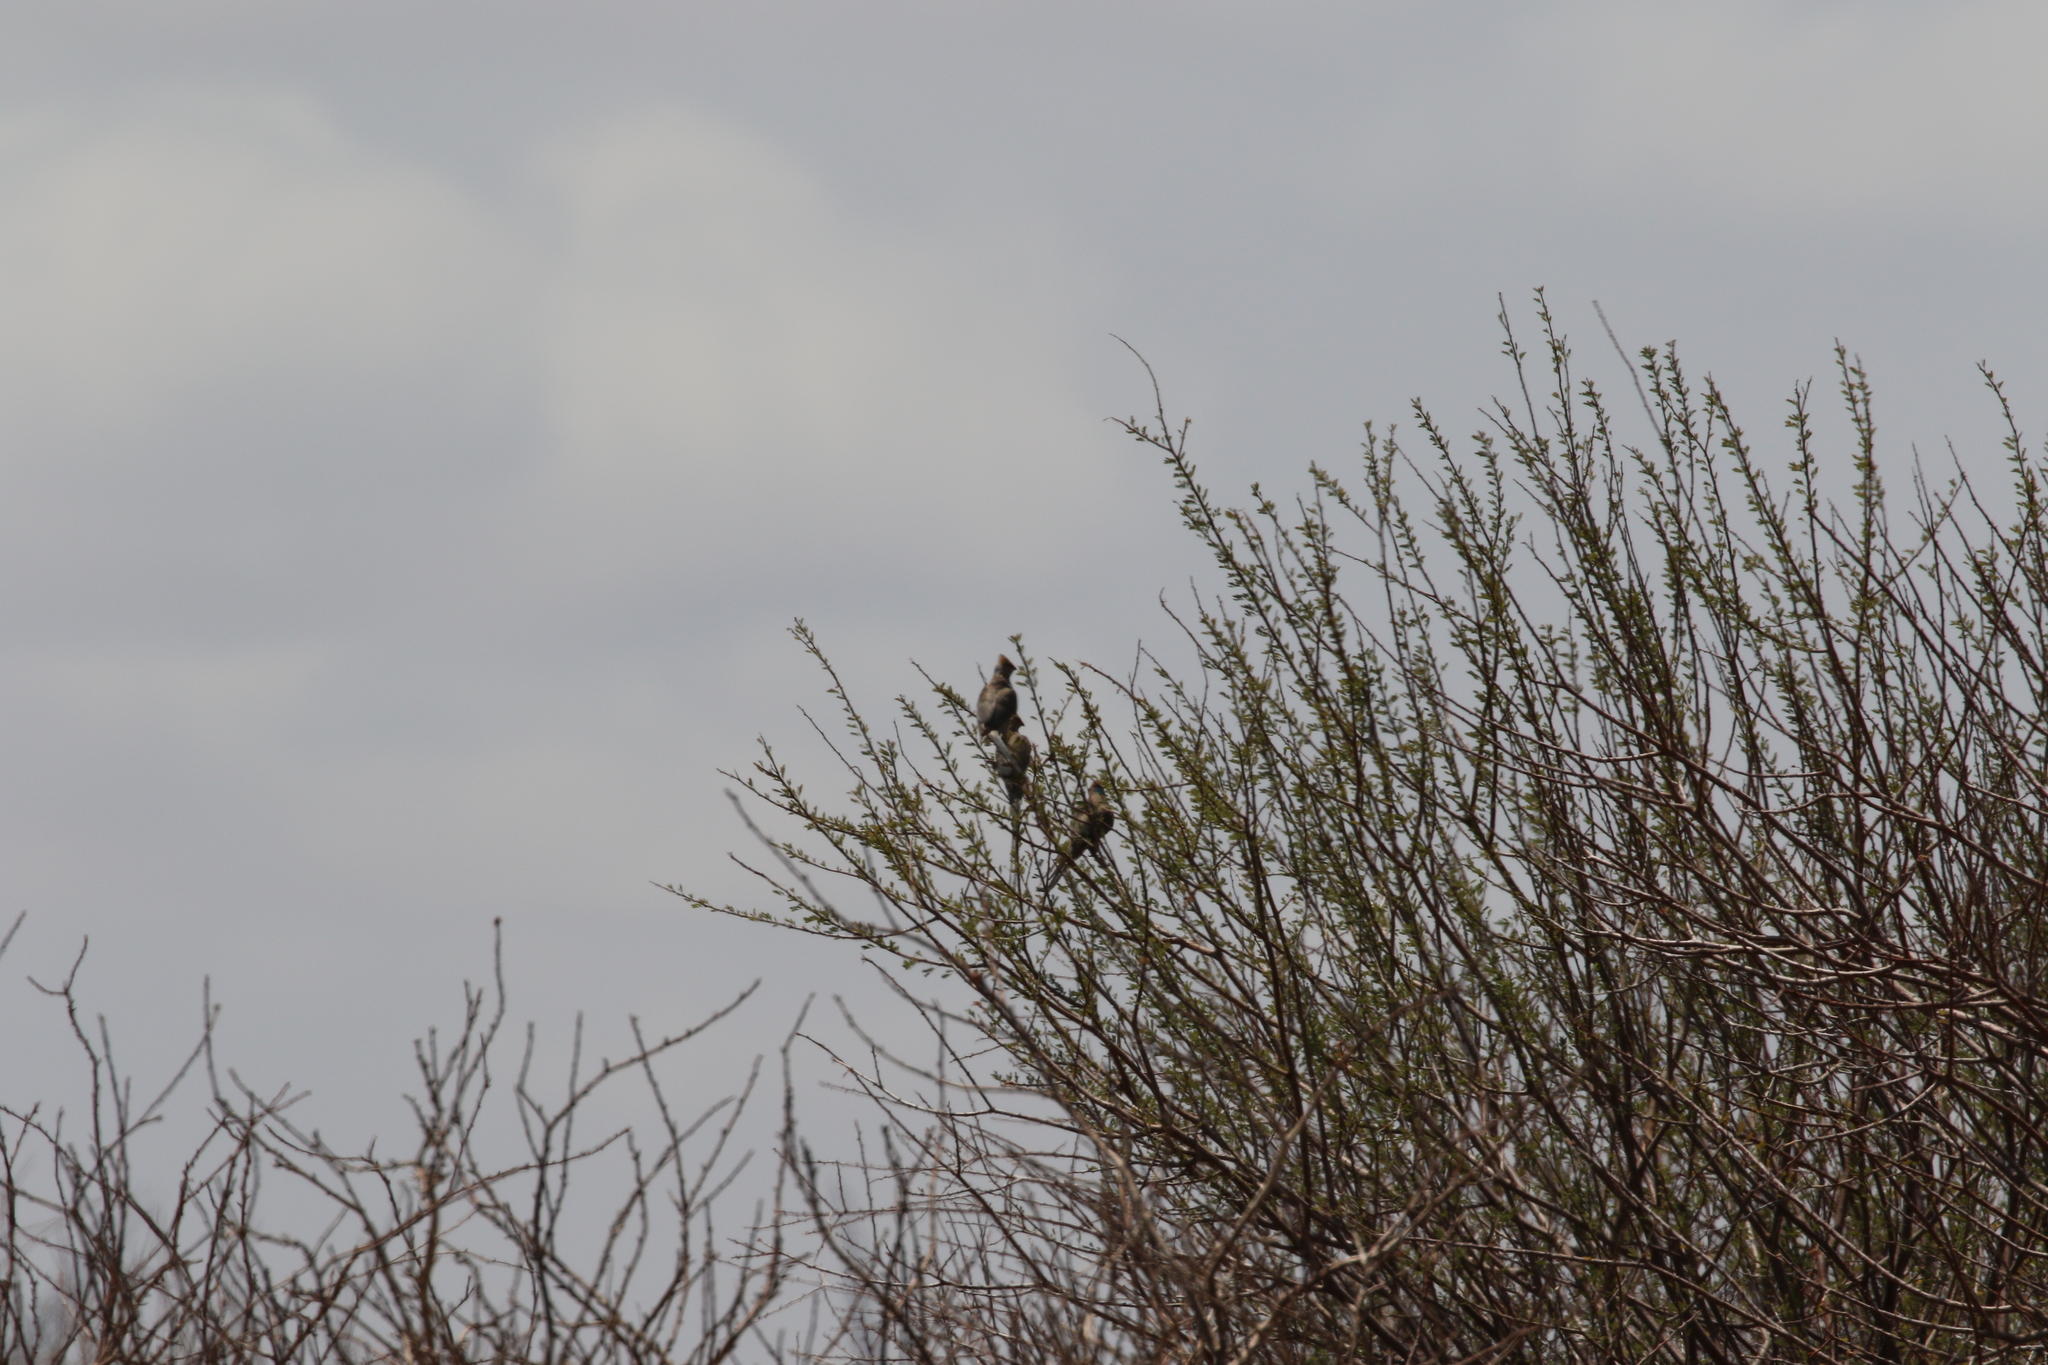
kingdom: Animalia
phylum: Chordata
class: Aves
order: Coliiformes
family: Coliidae
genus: Urocolius
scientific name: Urocolius macrourus
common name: Blue-naped mousebird
